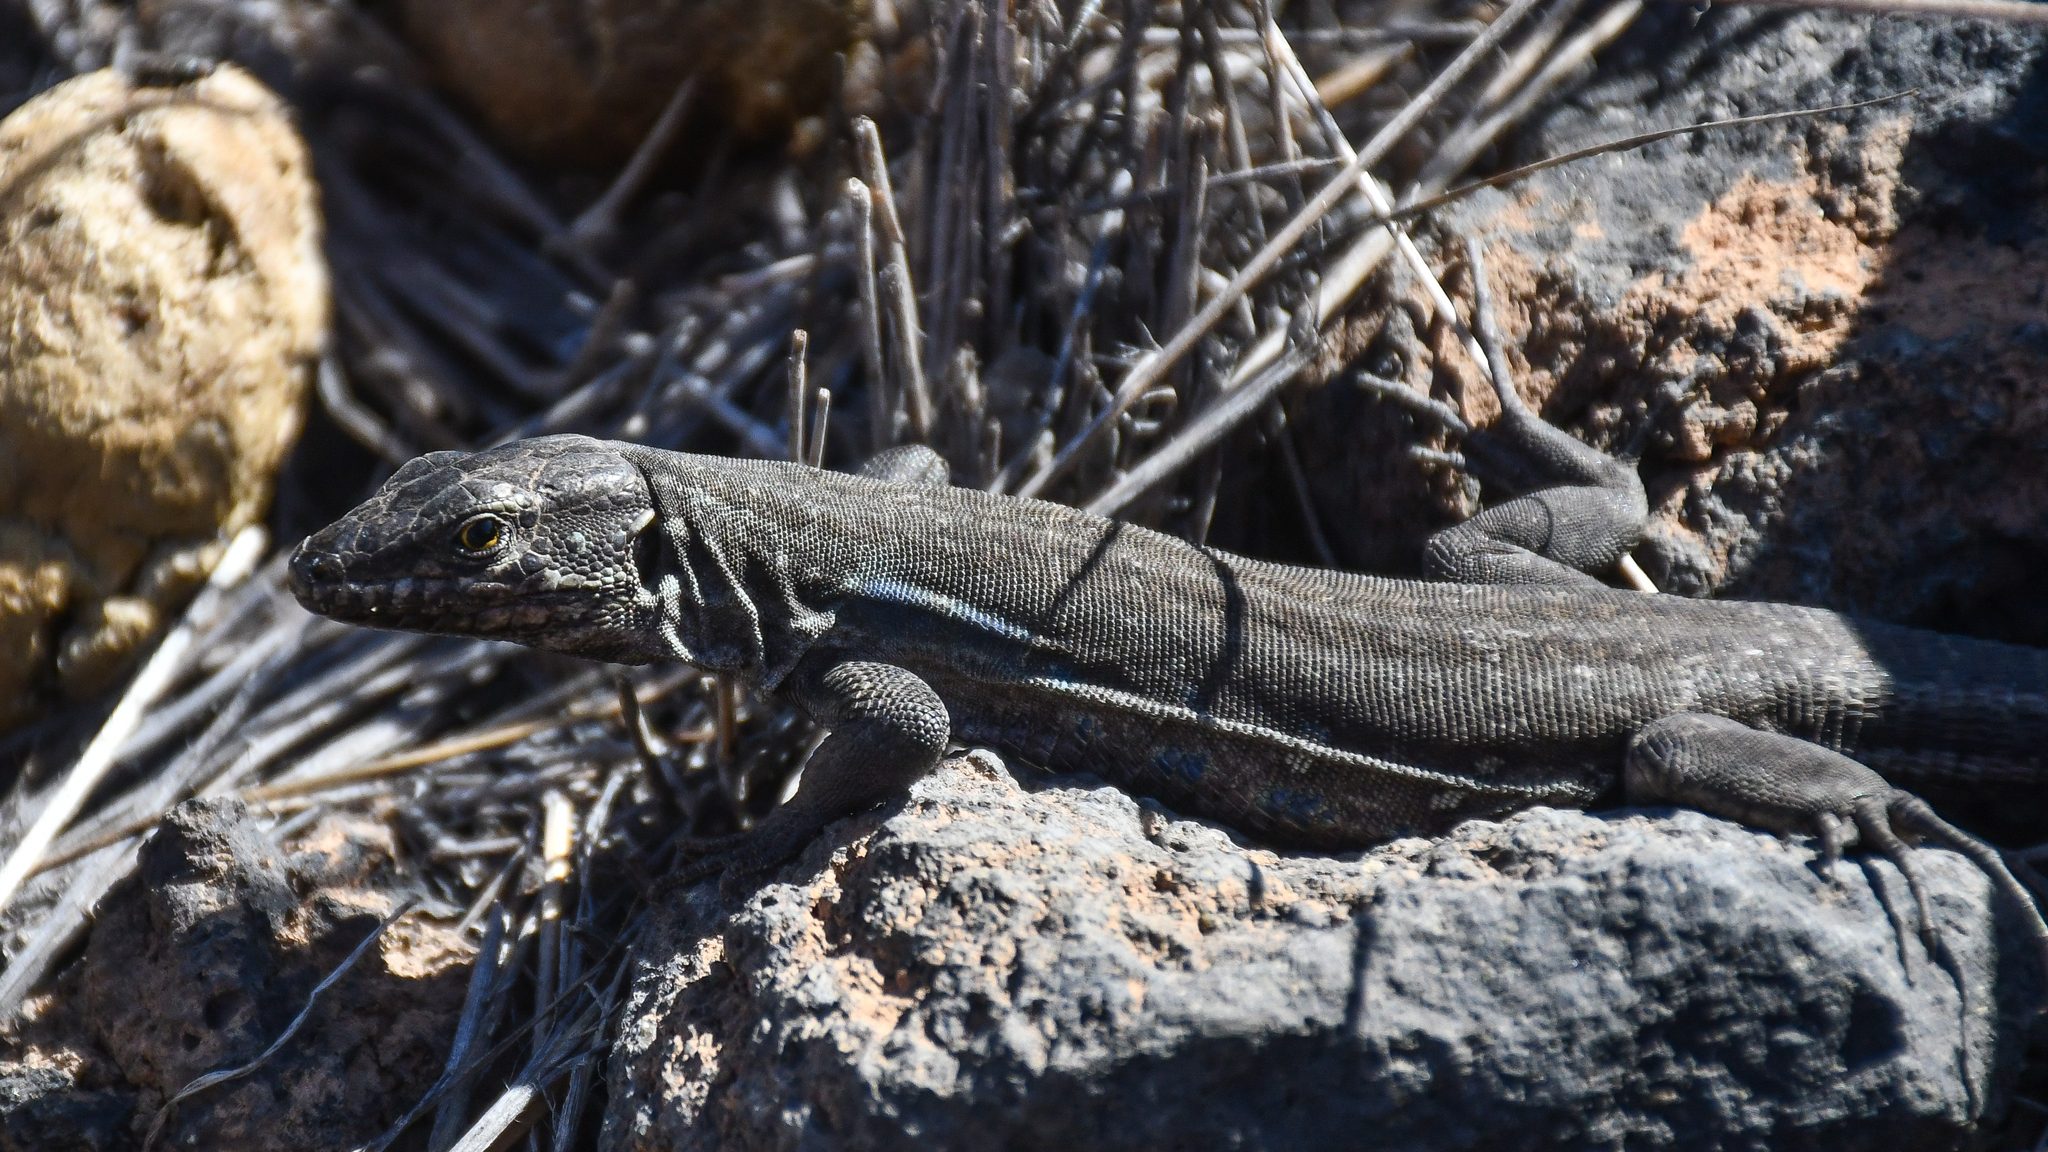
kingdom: Animalia
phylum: Chordata
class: Squamata
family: Lacertidae
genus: Gallotia
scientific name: Gallotia galloti
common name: Gallot's lizard
